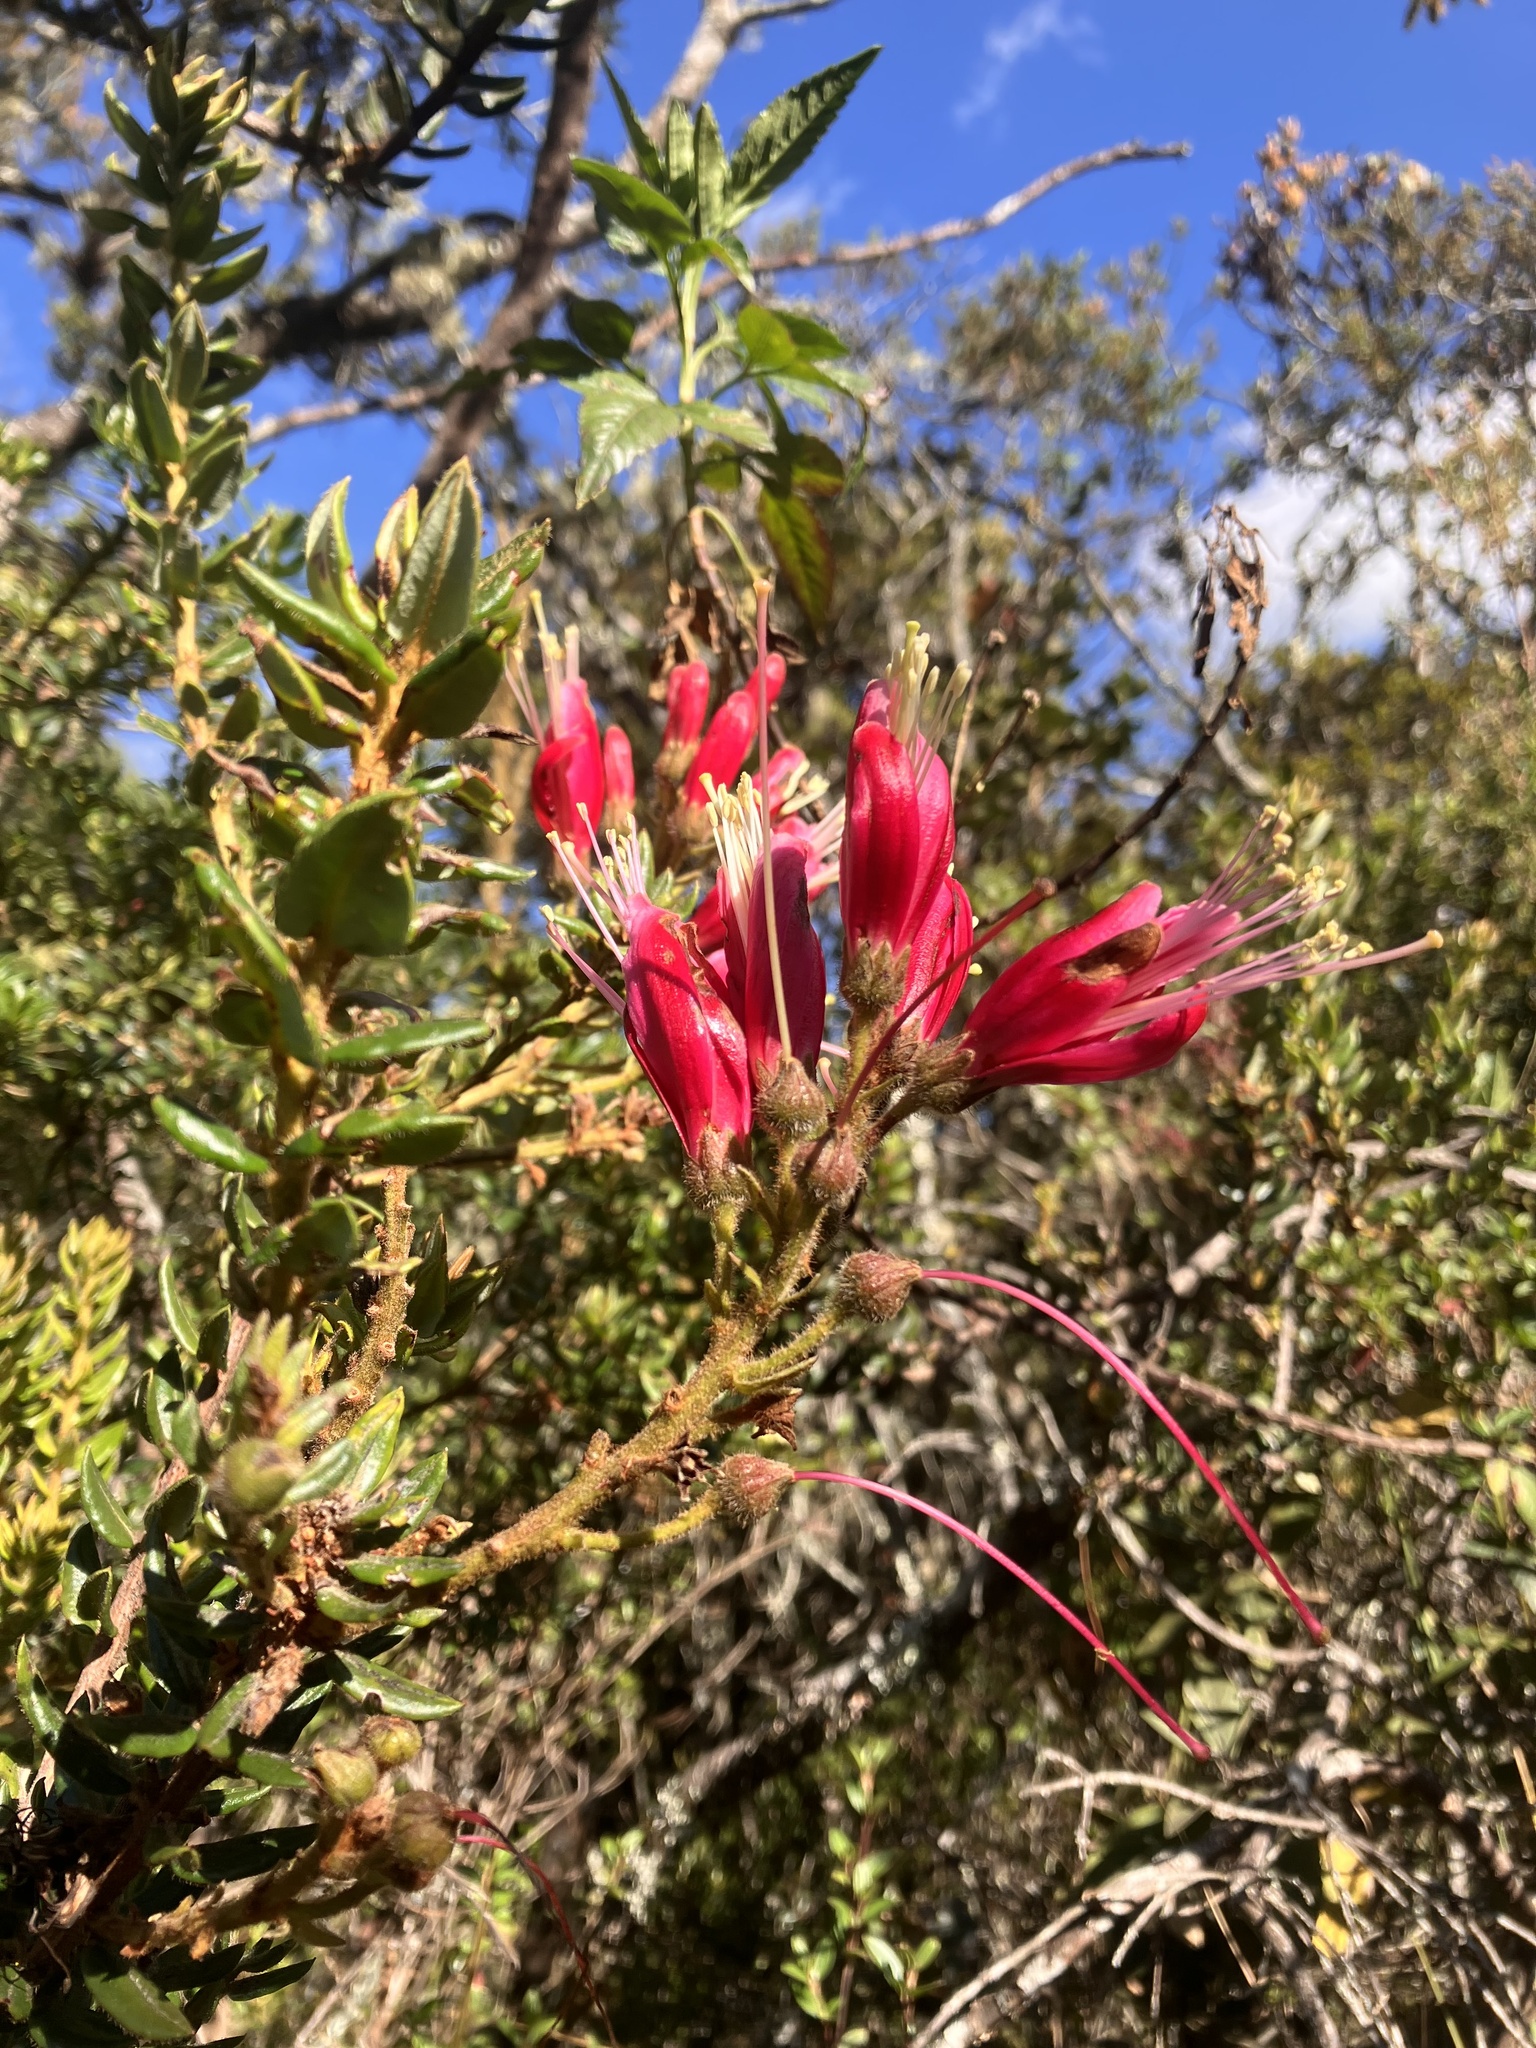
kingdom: Plantae
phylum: Tracheophyta
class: Magnoliopsida
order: Ericales
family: Ericaceae
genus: Bejaria
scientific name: Bejaria resinosa
